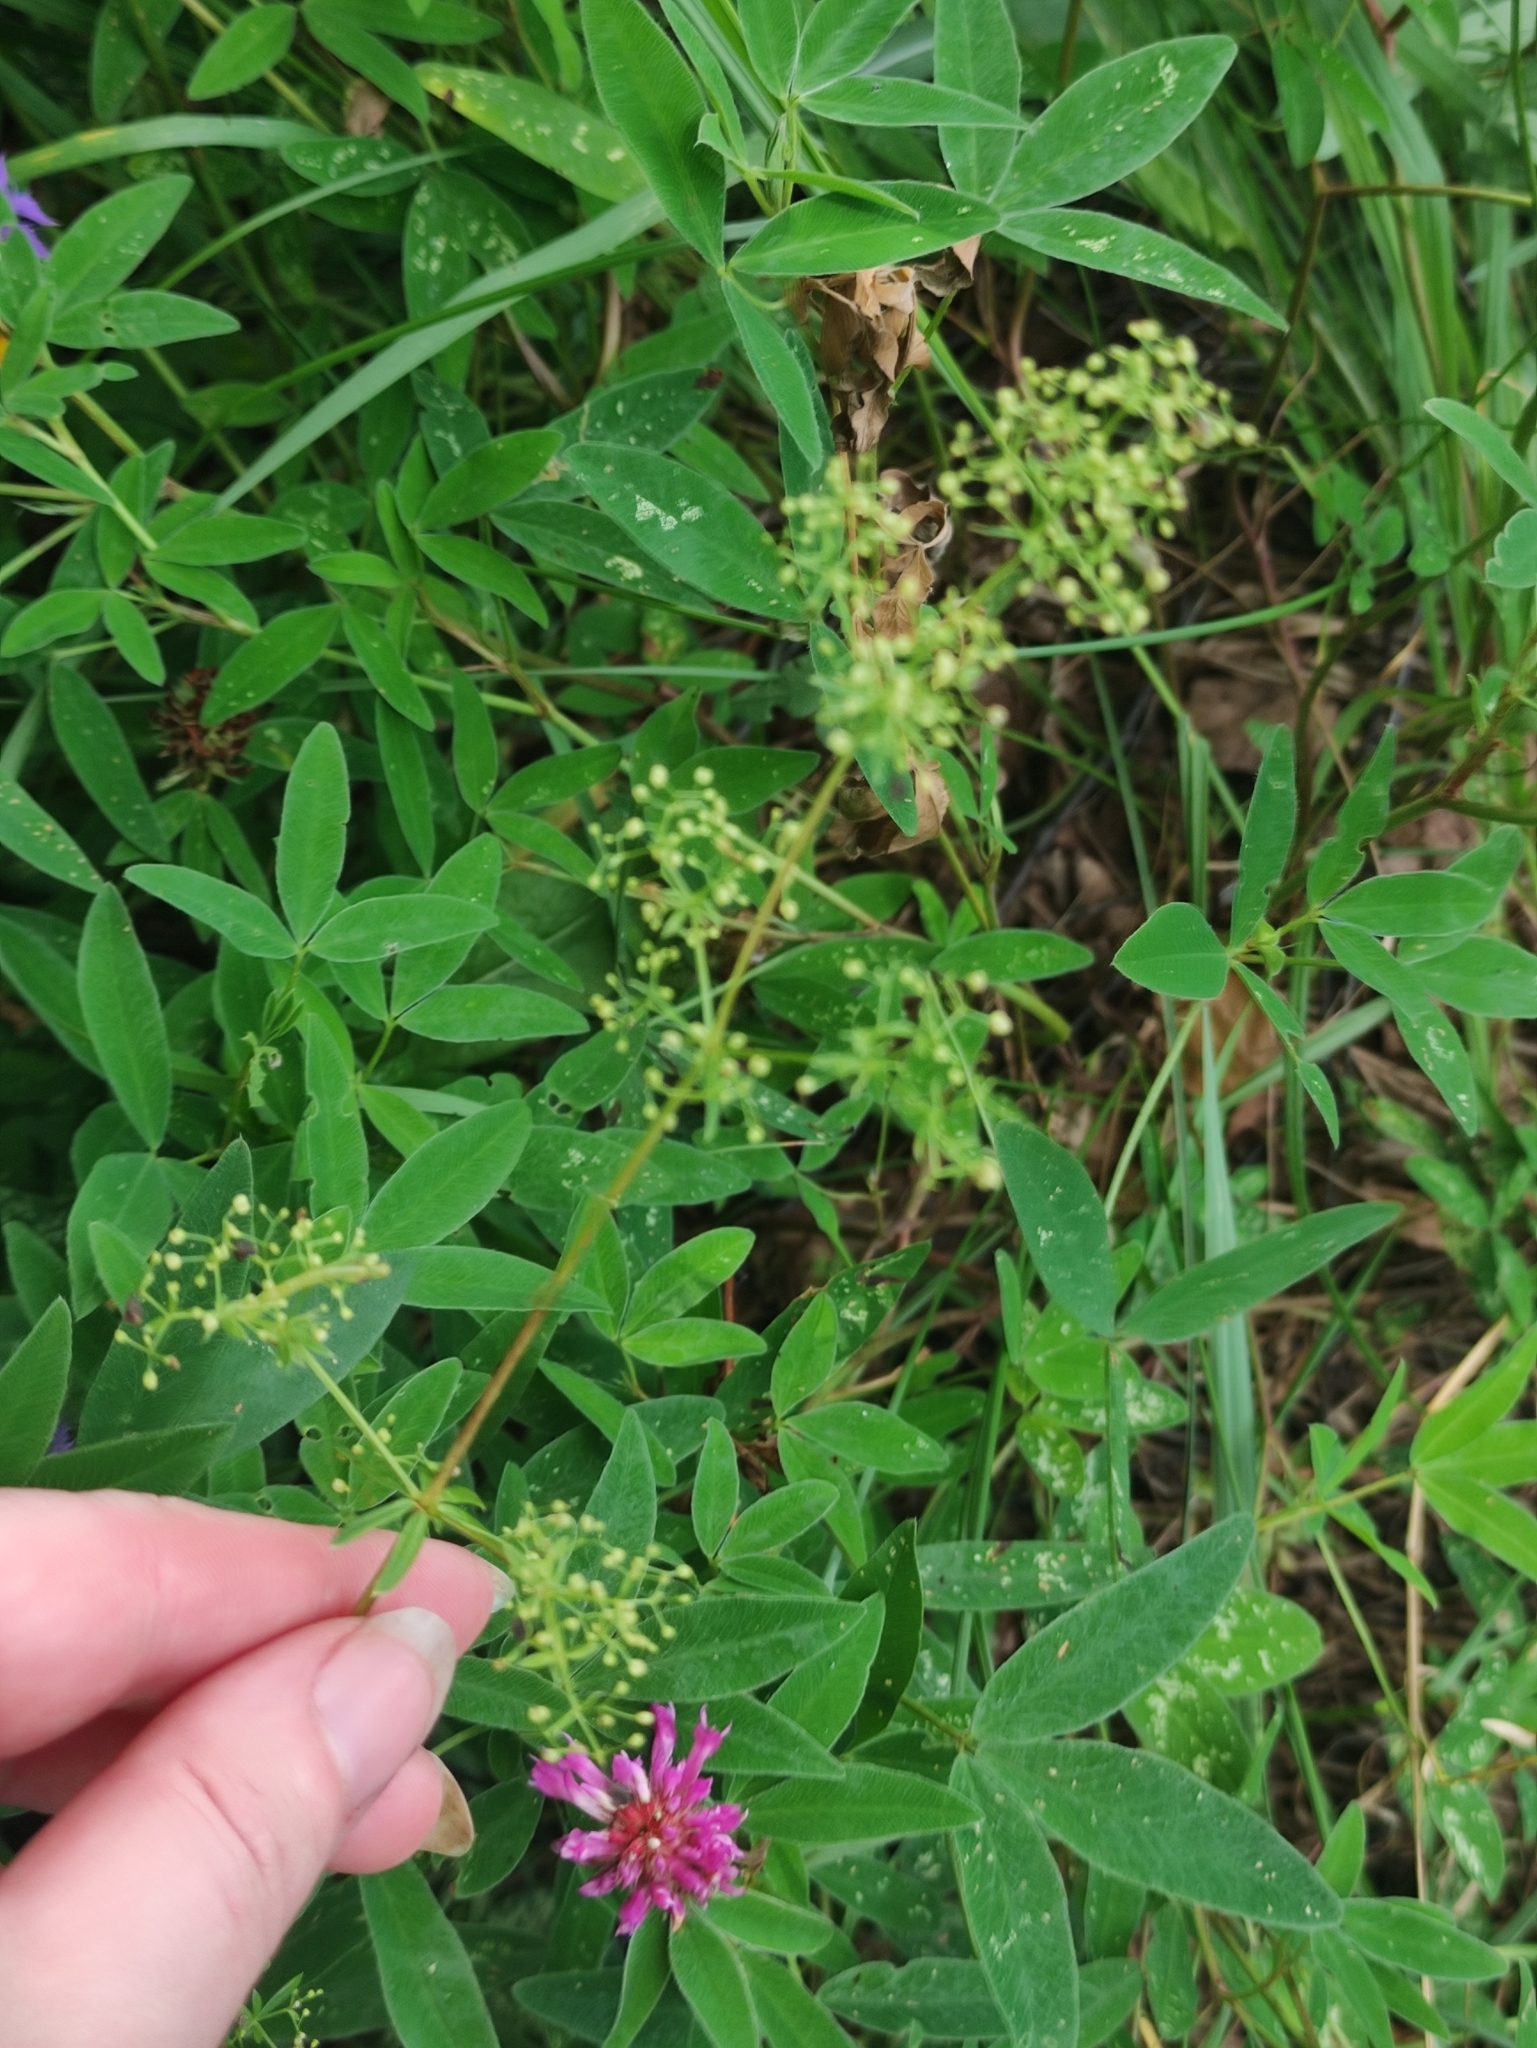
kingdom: Plantae
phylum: Tracheophyta
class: Magnoliopsida
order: Gentianales
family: Rubiaceae
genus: Galium
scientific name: Galium mollugo
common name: Hedge bedstraw
